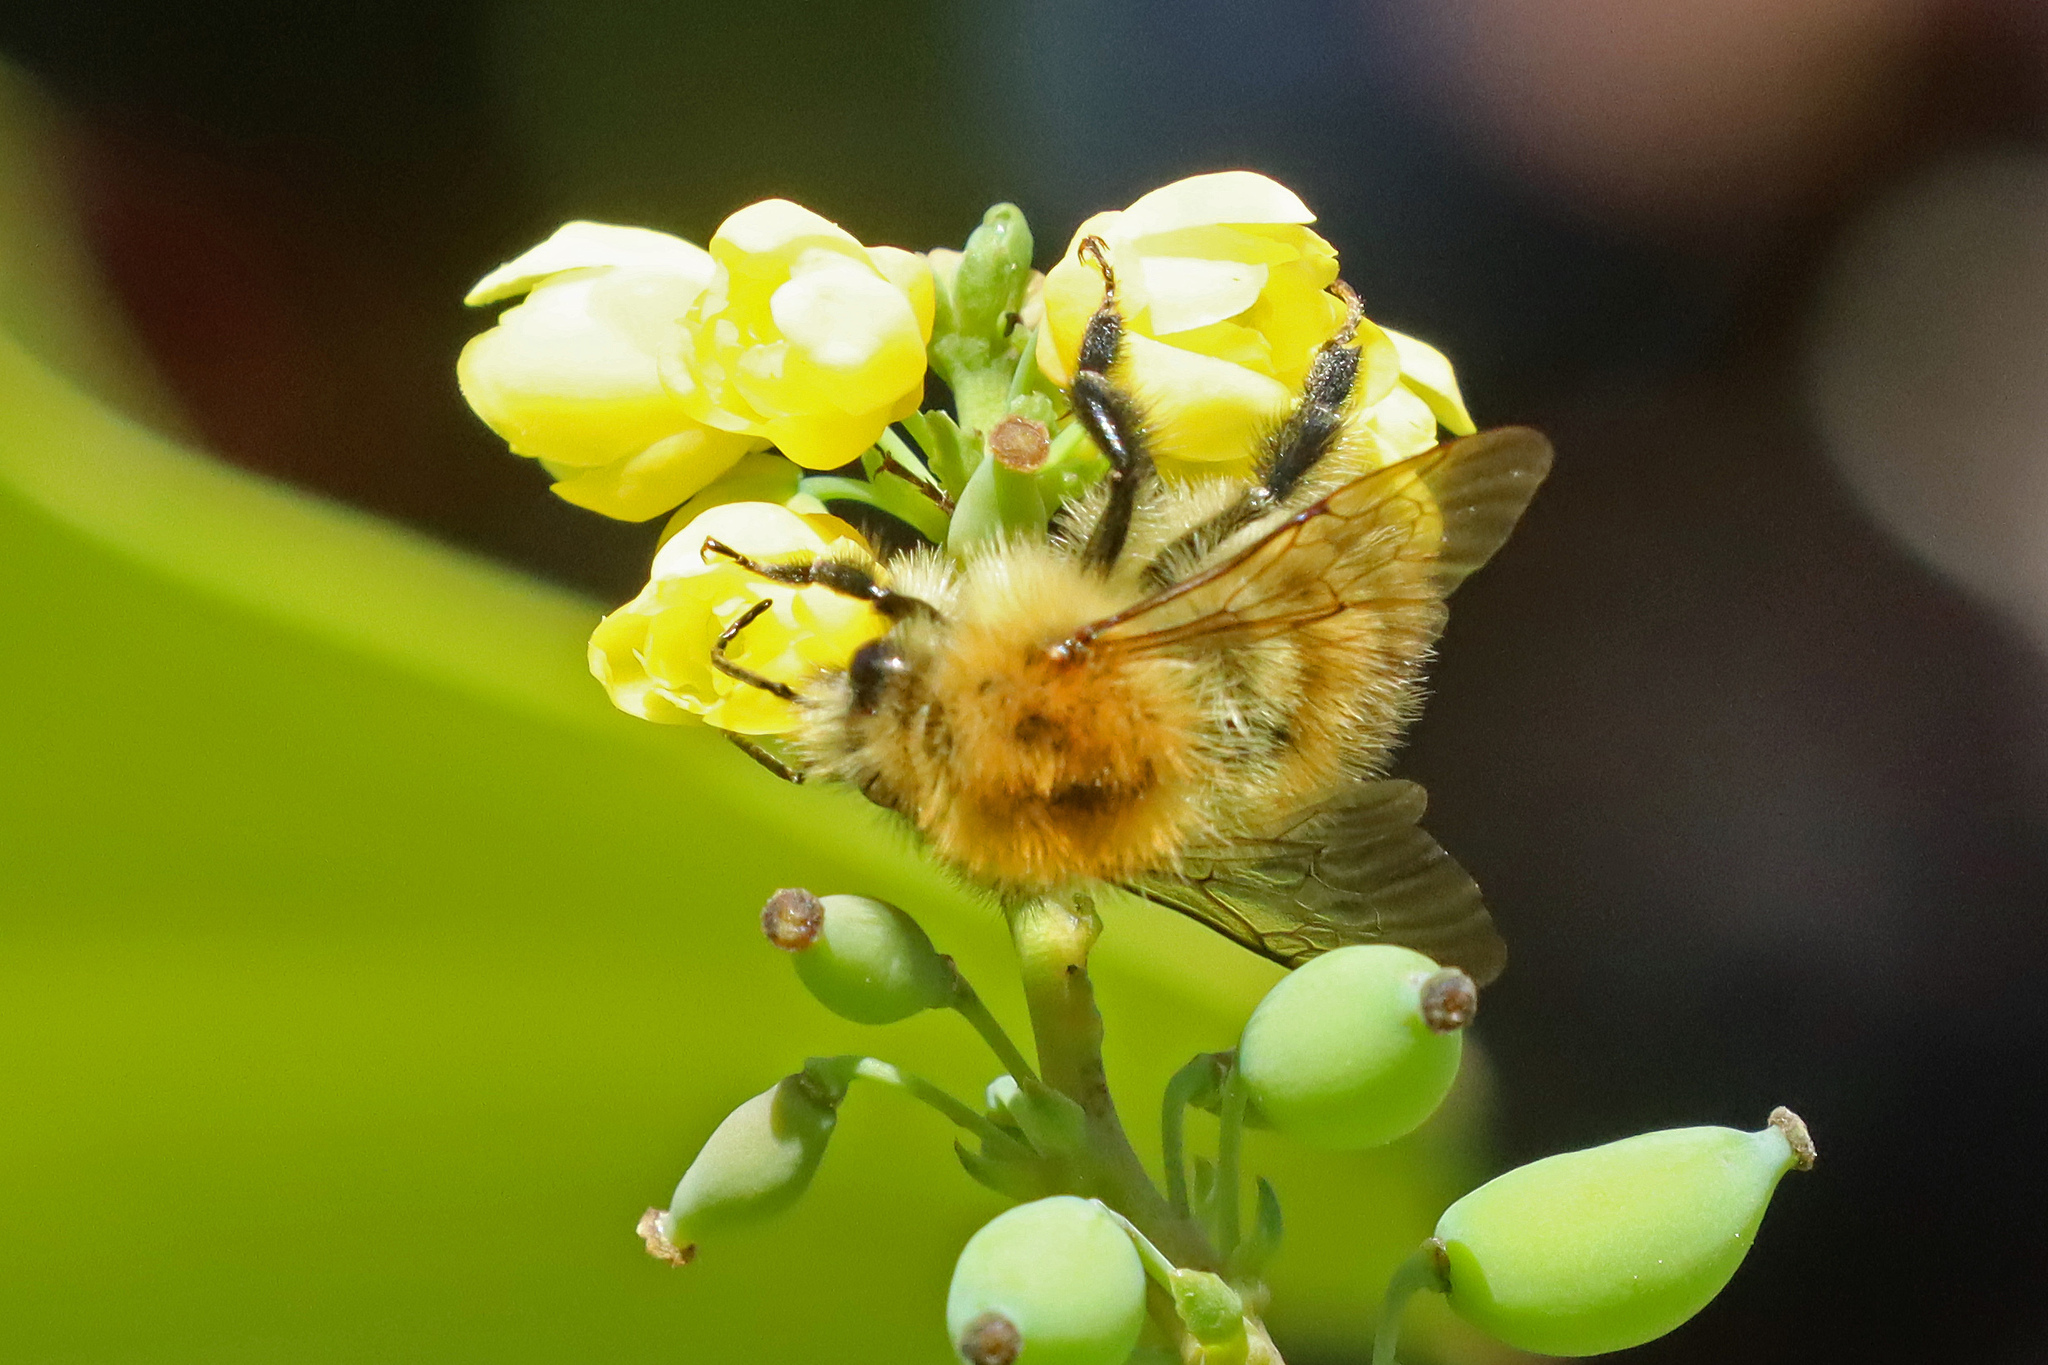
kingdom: Animalia
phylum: Arthropoda
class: Insecta
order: Hymenoptera
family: Apidae
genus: Bombus
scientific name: Bombus pascuorum
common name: Common carder bee
